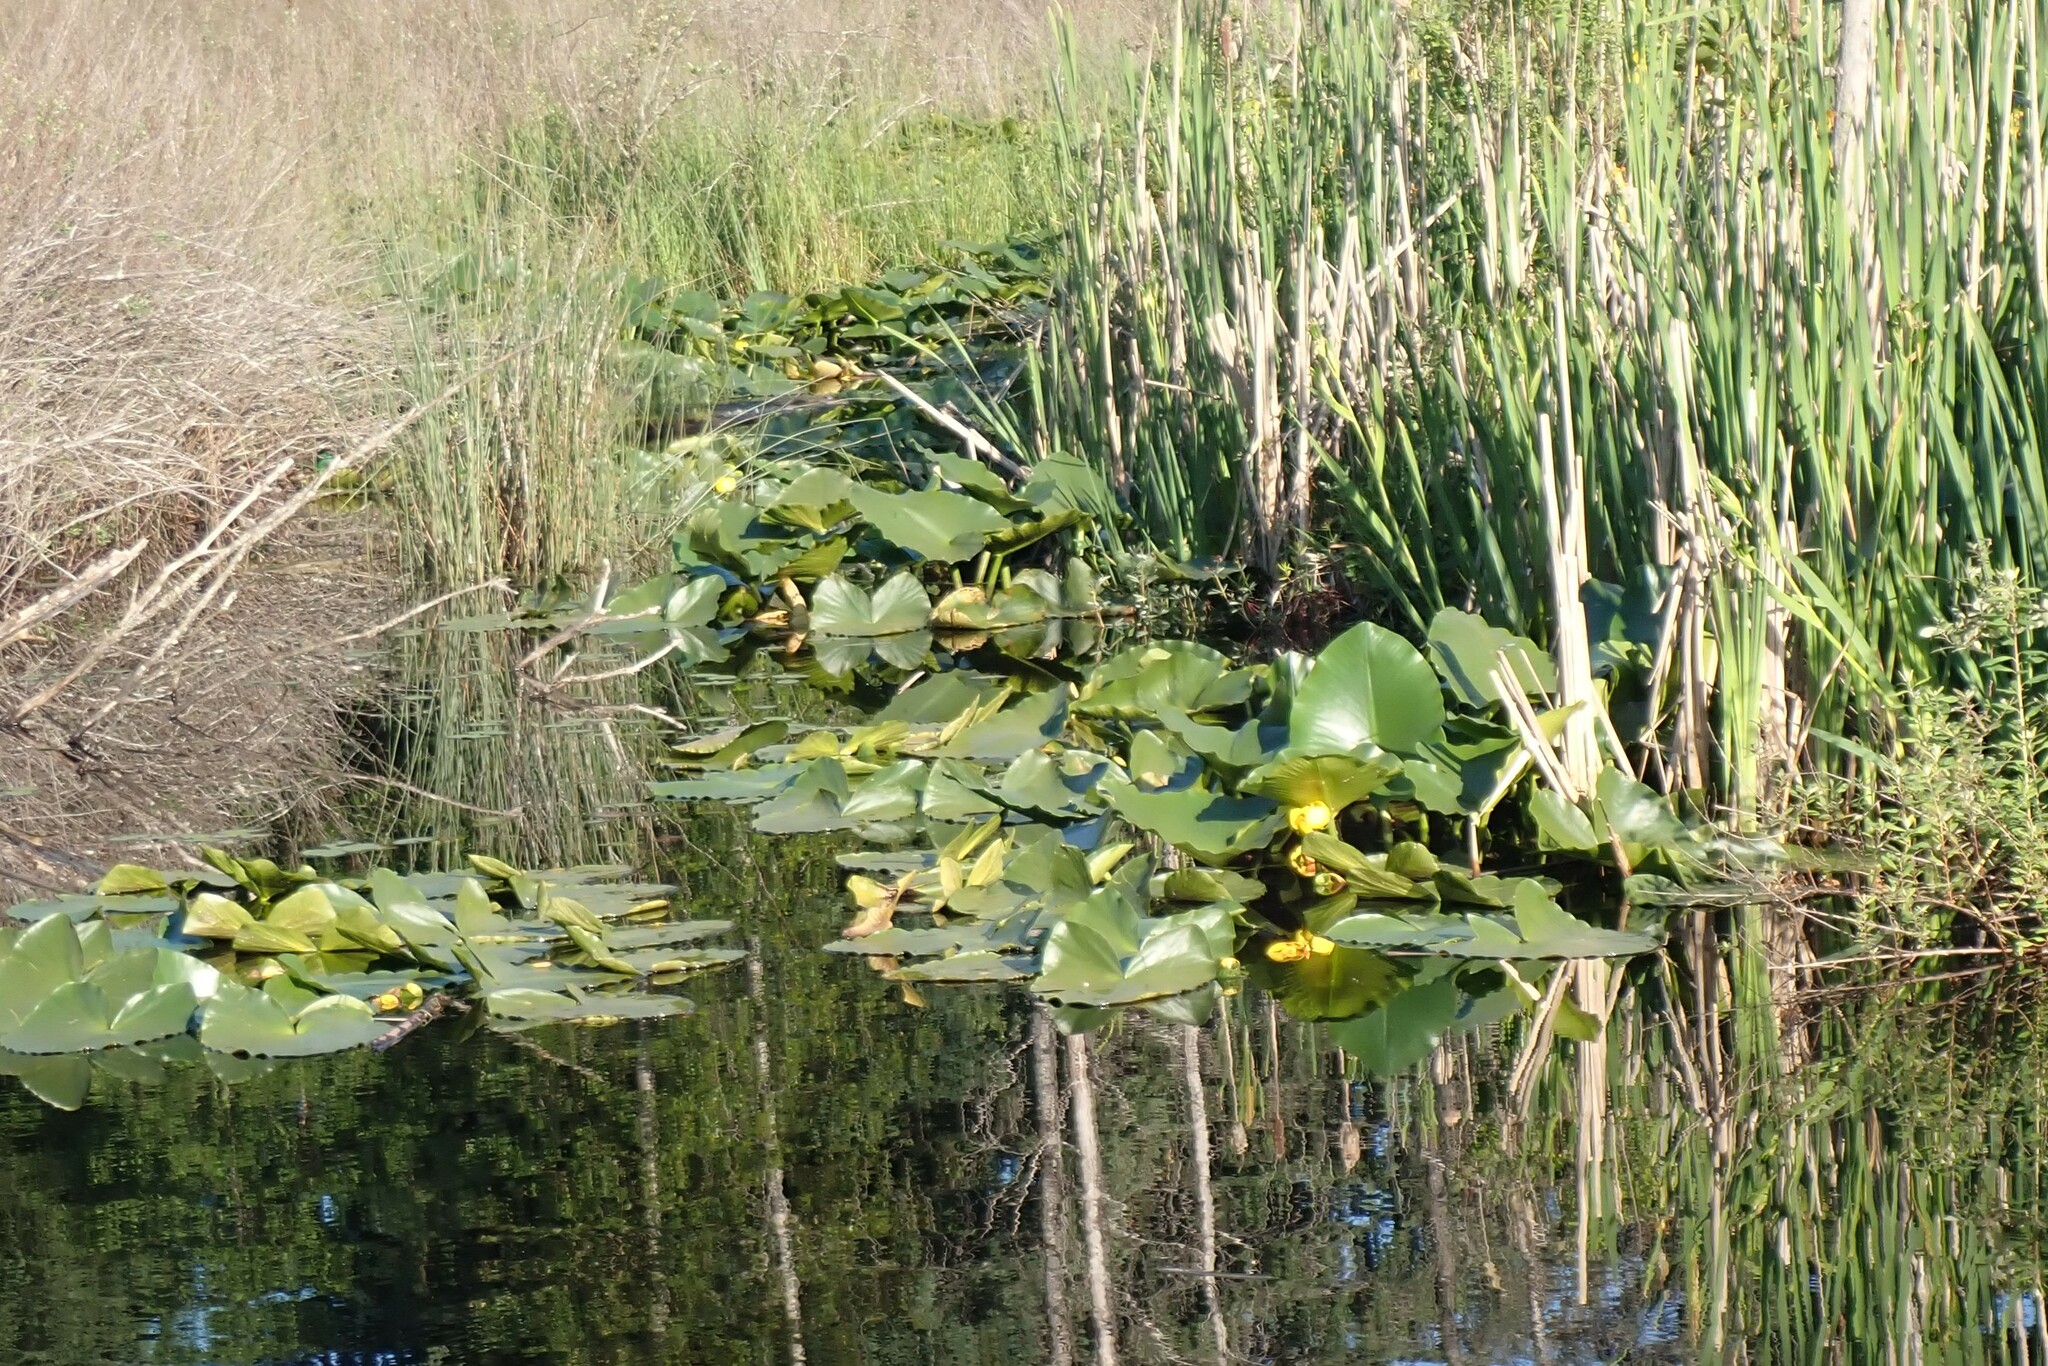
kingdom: Plantae
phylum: Tracheophyta
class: Magnoliopsida
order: Nymphaeales
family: Nymphaeaceae
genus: Nuphar
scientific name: Nuphar polysepala
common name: Rocky mountain cow-lily
